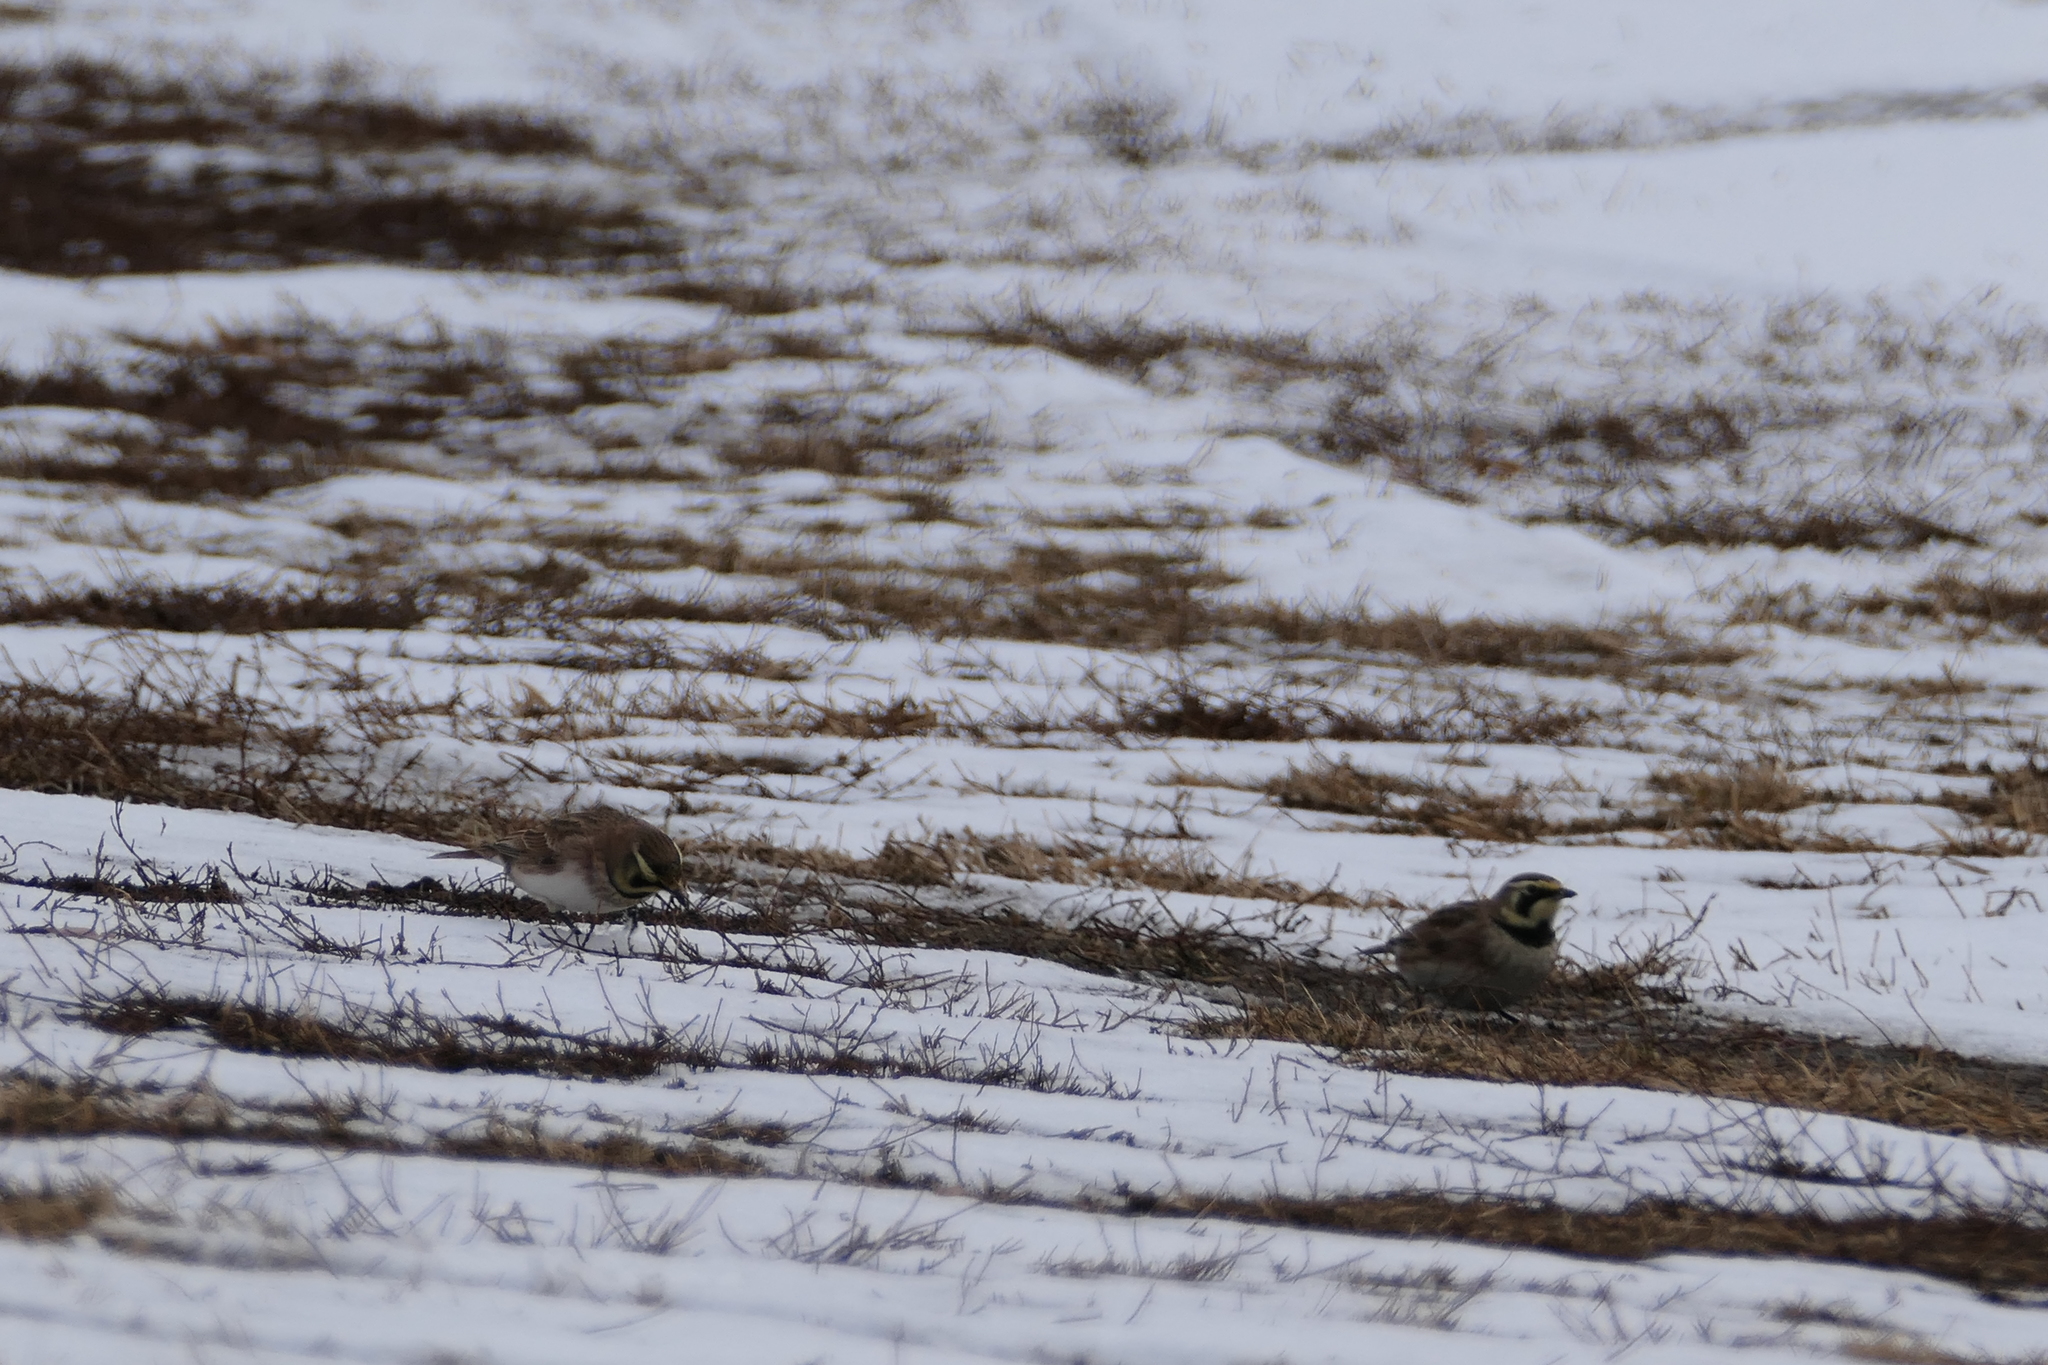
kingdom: Animalia
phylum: Chordata
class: Aves
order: Passeriformes
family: Alaudidae
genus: Eremophila
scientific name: Eremophila alpestris
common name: Horned lark
